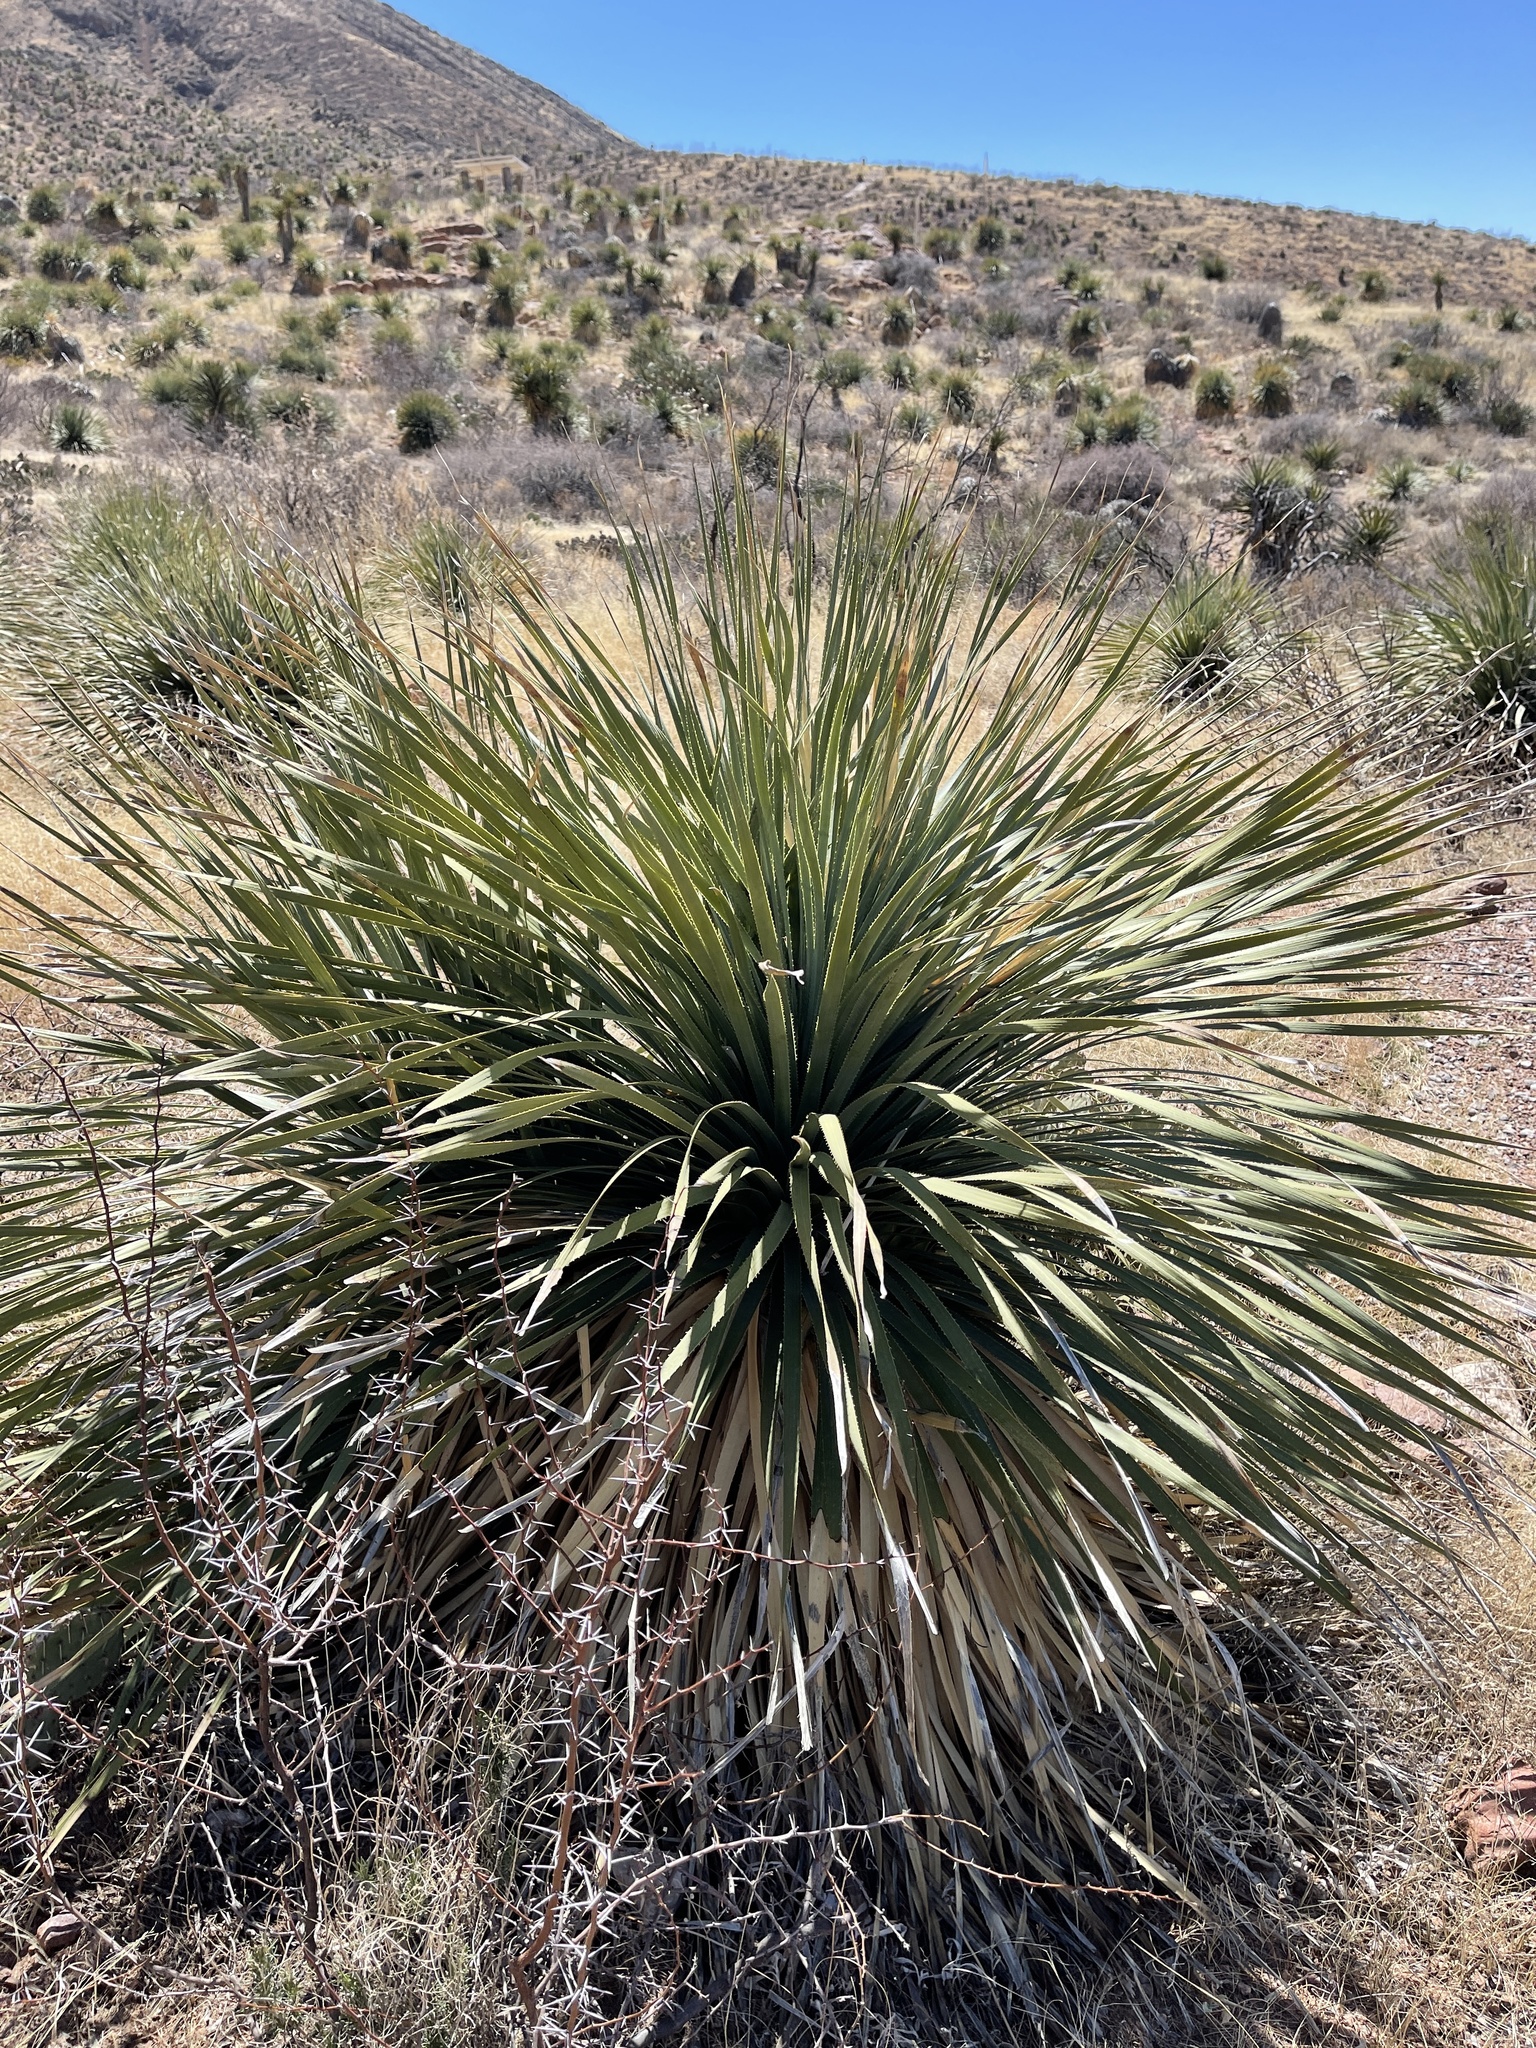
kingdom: Plantae
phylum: Tracheophyta
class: Liliopsida
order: Asparagales
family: Asparagaceae
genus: Dasylirion
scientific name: Dasylirion wheeleri
